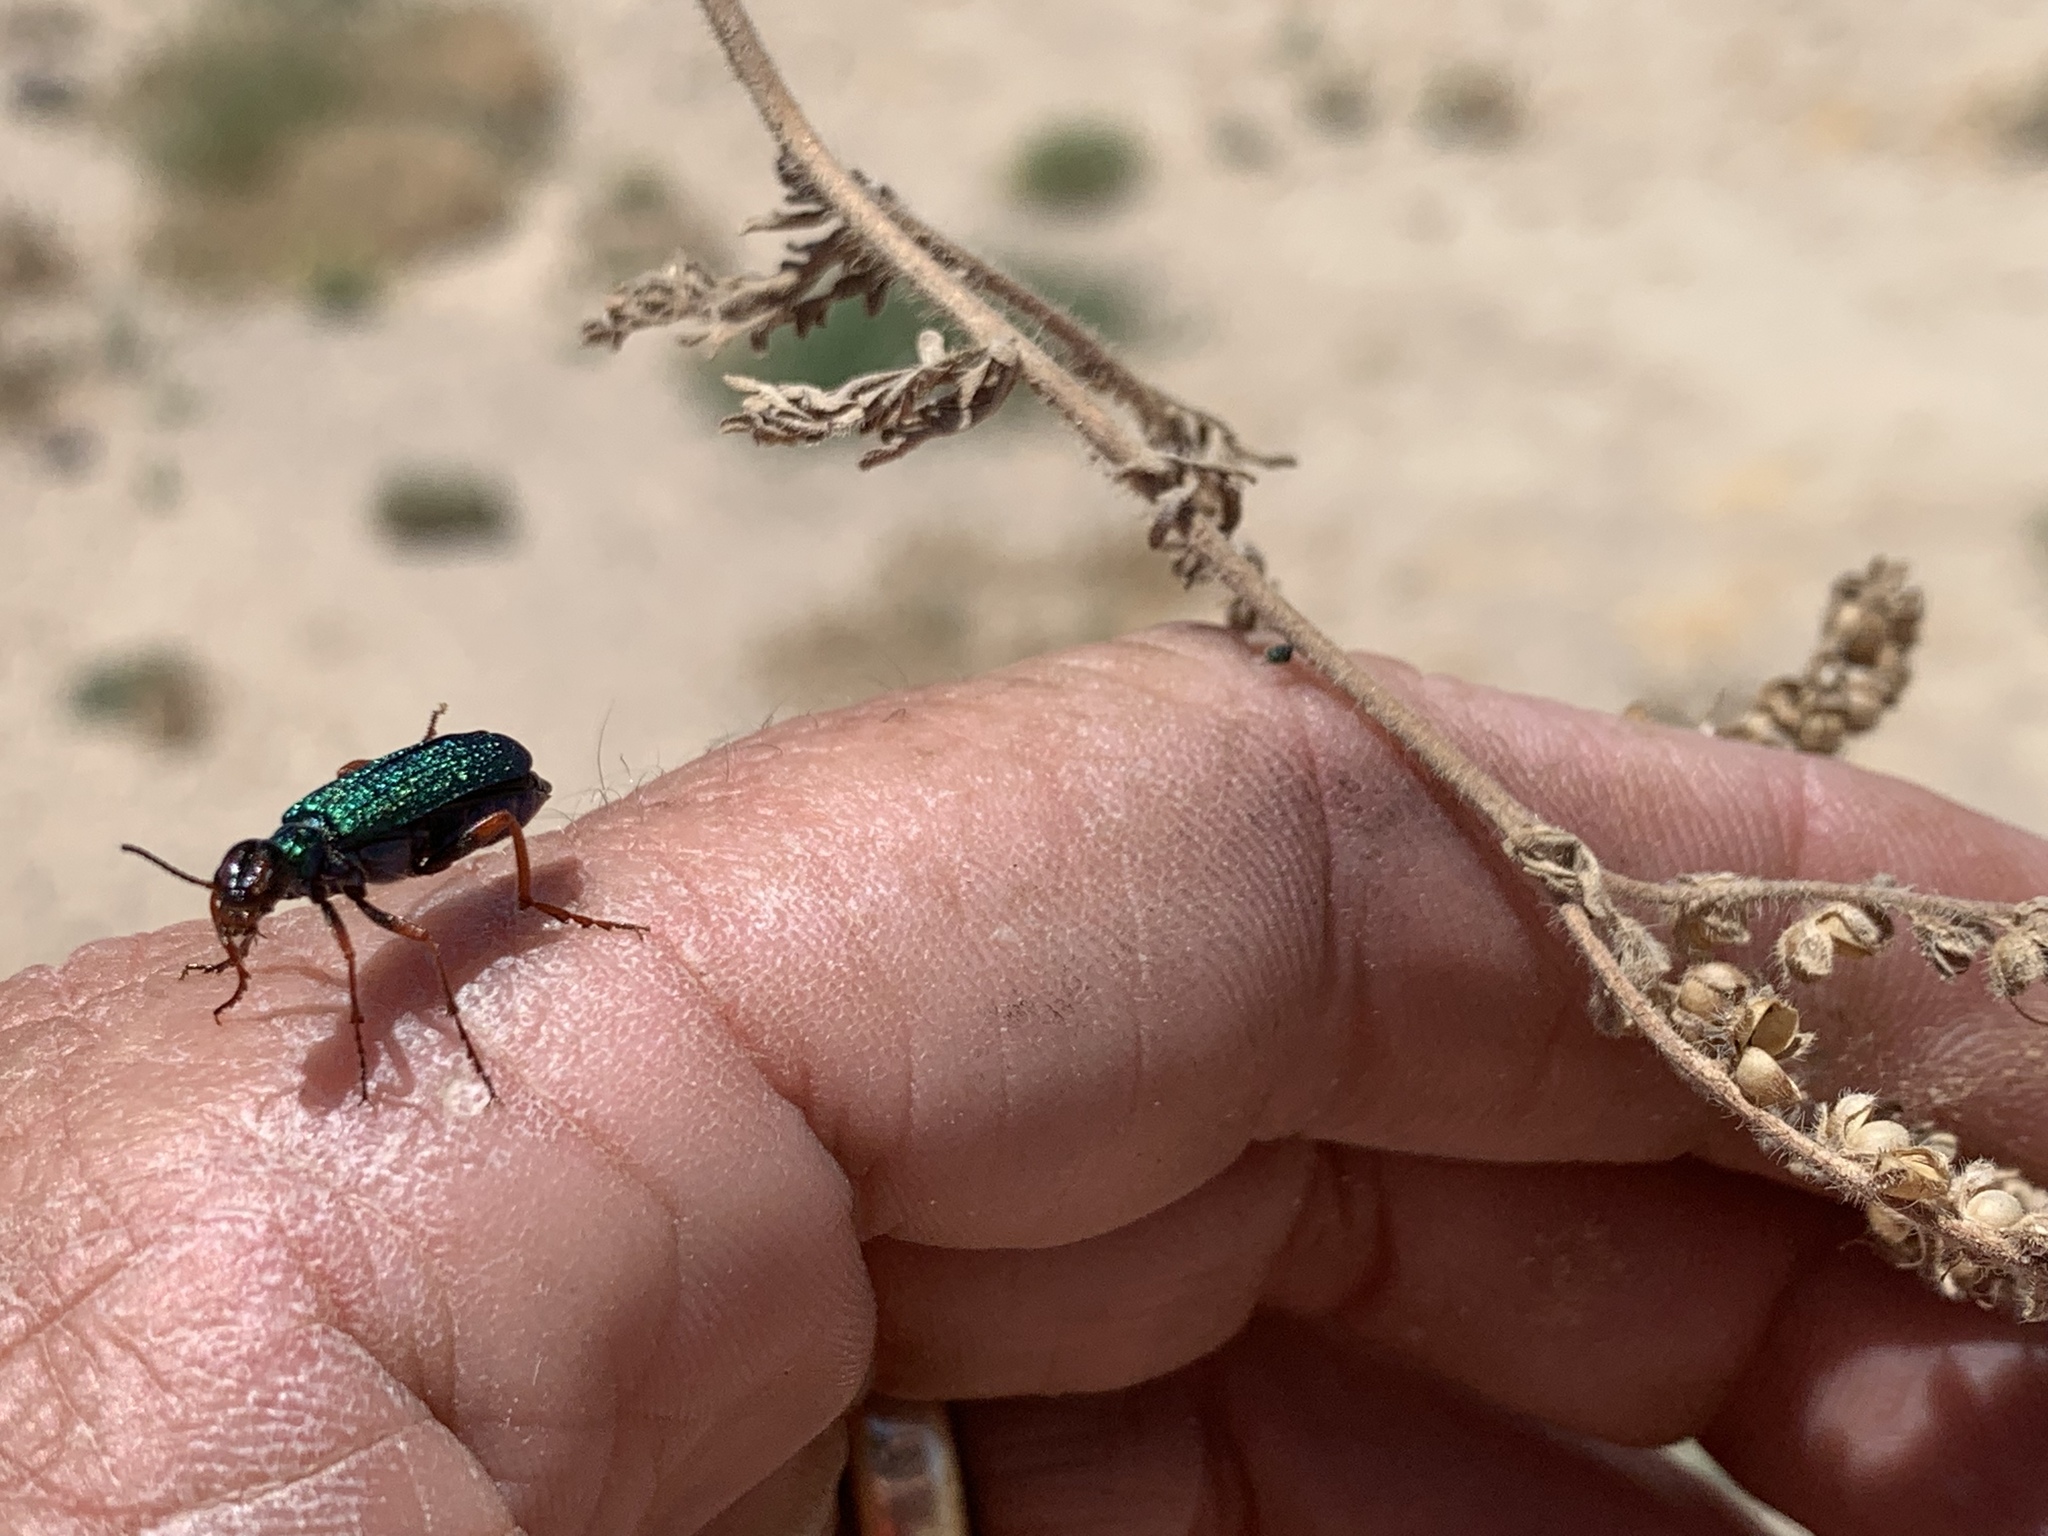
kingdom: Animalia
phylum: Arthropoda
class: Insecta
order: Coleoptera
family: Meloidae
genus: Eupompha
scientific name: Eupompha fissiceps
